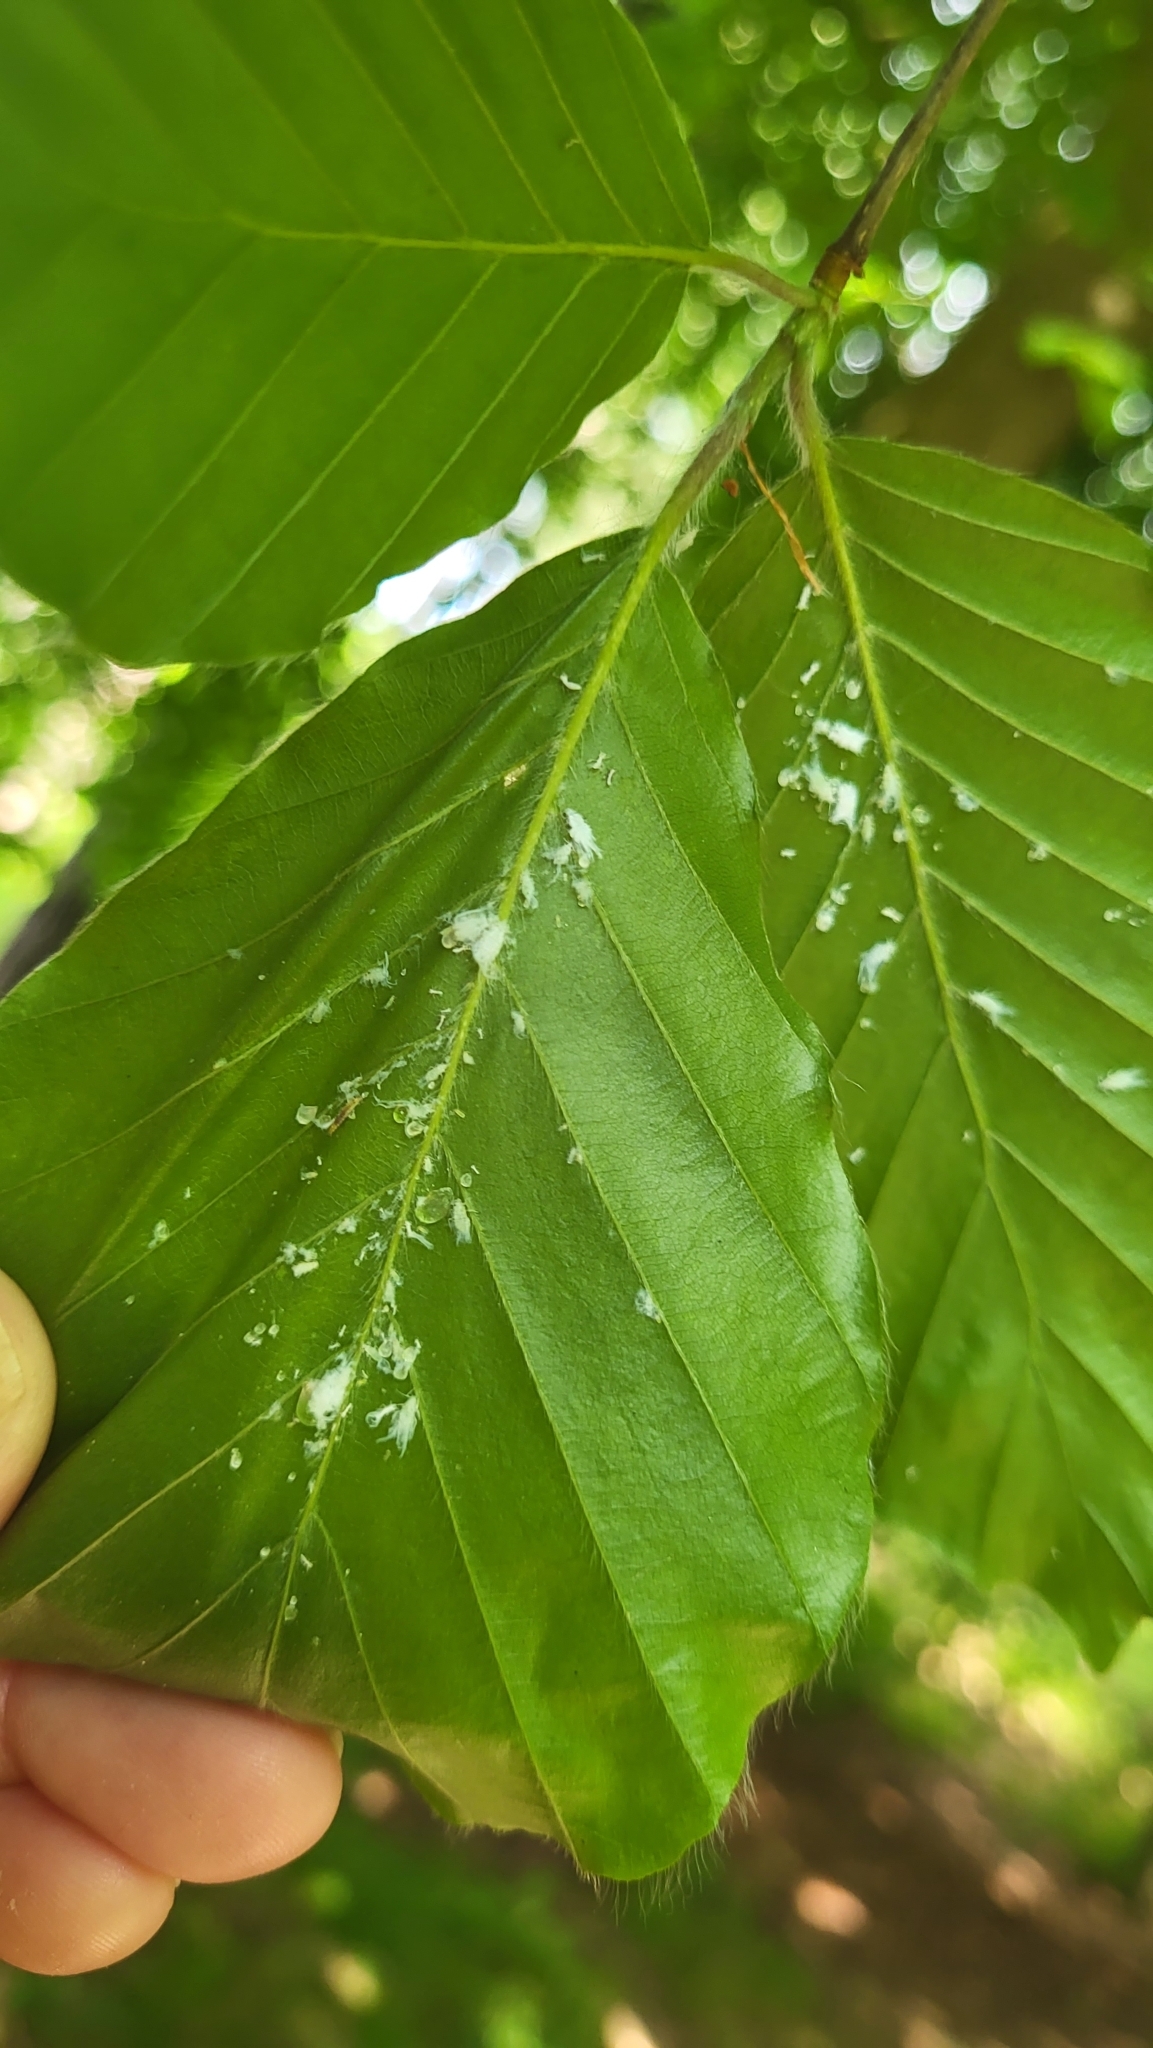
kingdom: Animalia
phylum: Arthropoda
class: Insecta
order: Hemiptera
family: Aphididae
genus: Phyllaphis
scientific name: Phyllaphis fagi
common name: Beech aphid
